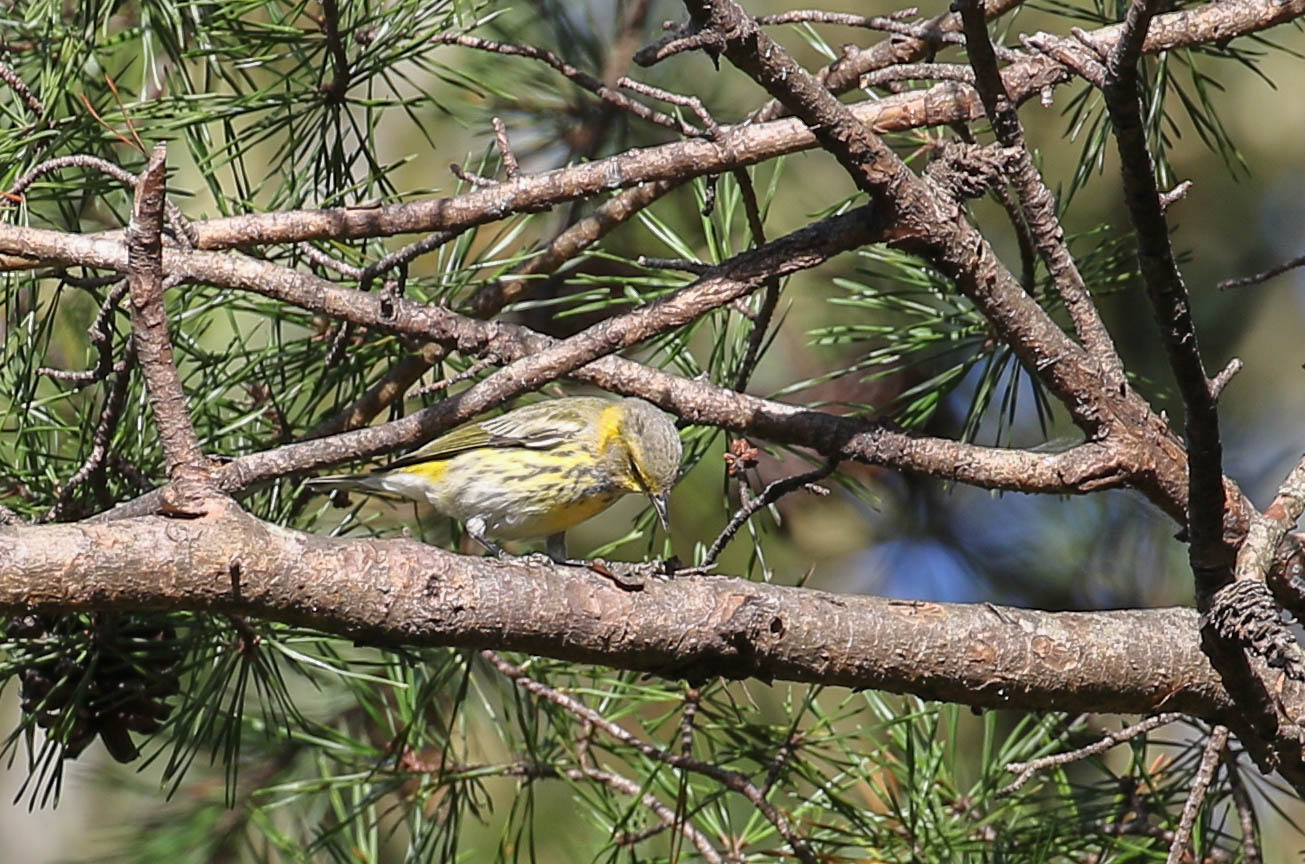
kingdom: Animalia
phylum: Chordata
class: Aves
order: Passeriformes
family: Parulidae
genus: Setophaga
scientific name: Setophaga tigrina
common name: Cape may warbler
